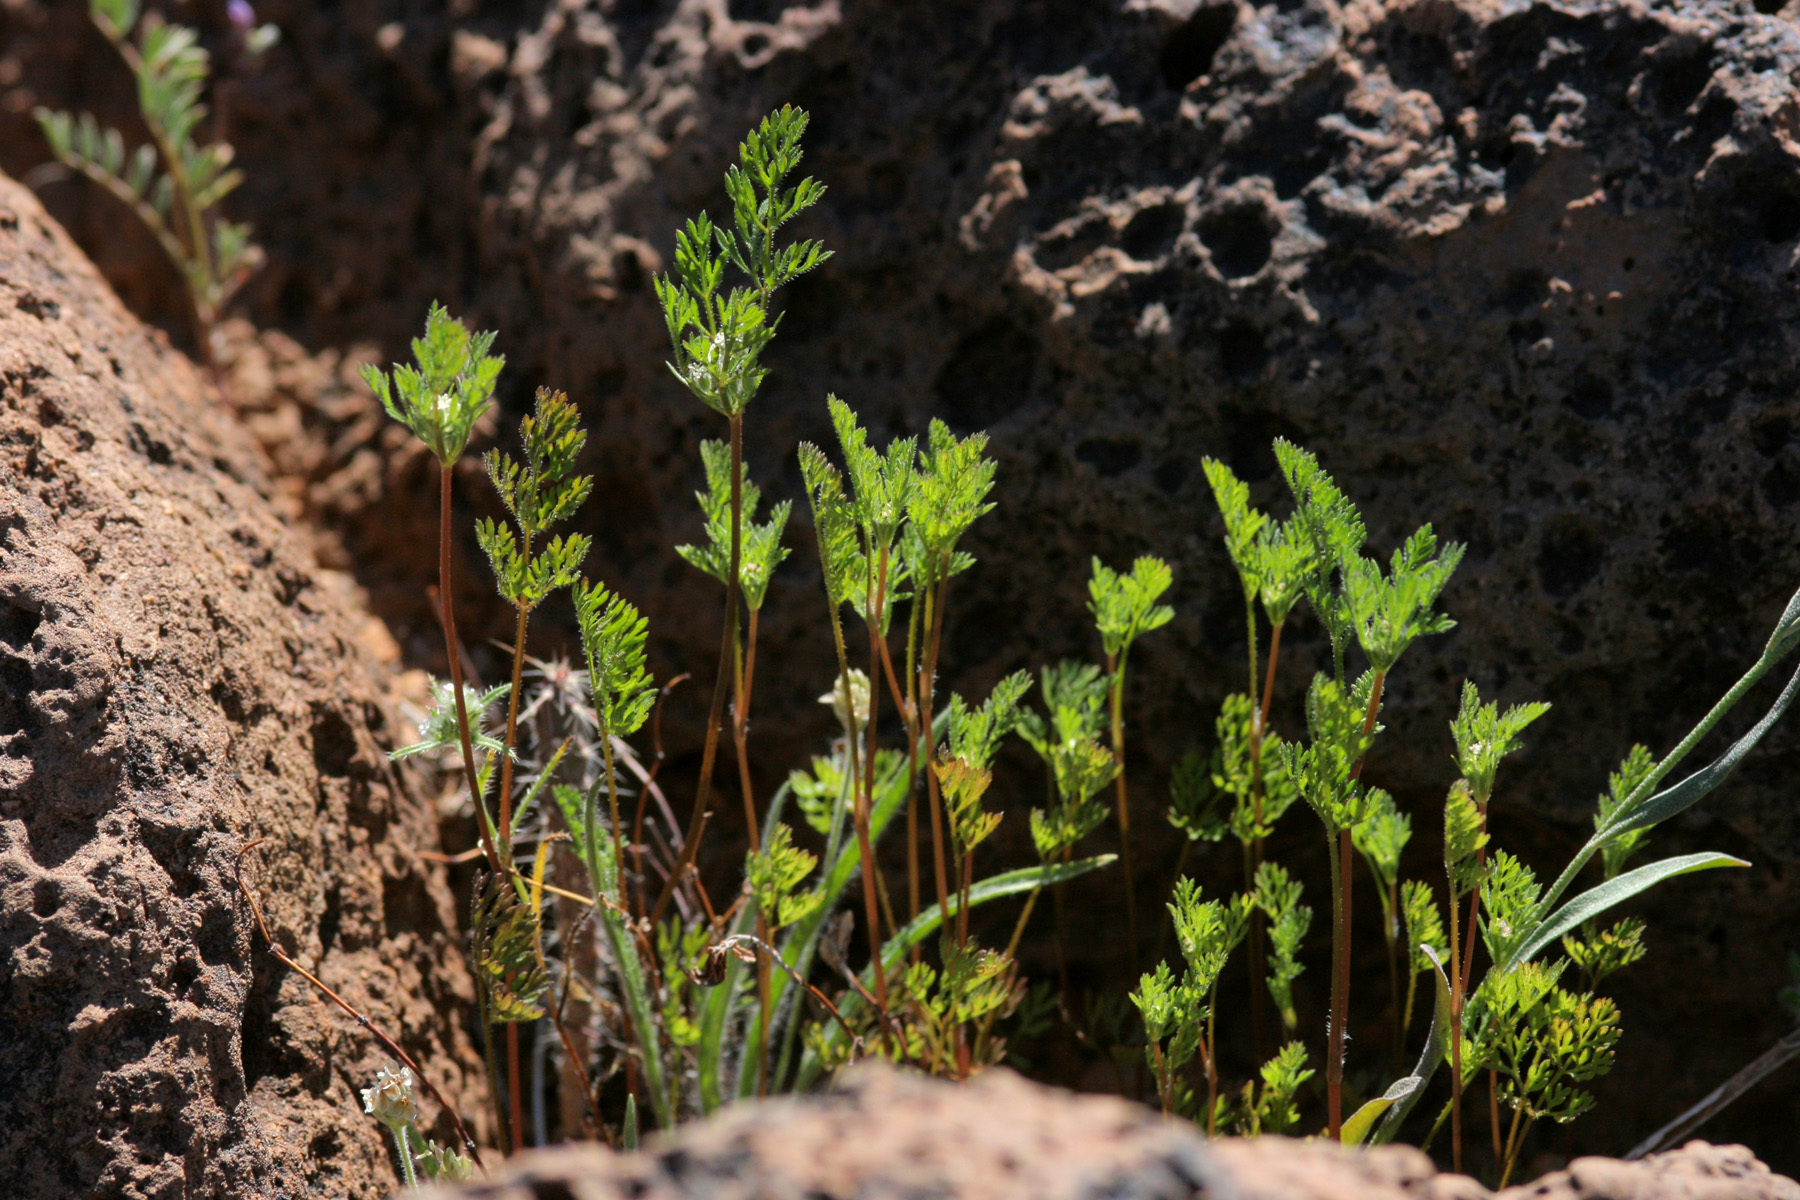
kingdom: Plantae
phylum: Tracheophyta
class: Magnoliopsida
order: Apiales
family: Apiaceae
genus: Daucus
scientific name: Daucus pusillus
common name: Southwest wild carrot
